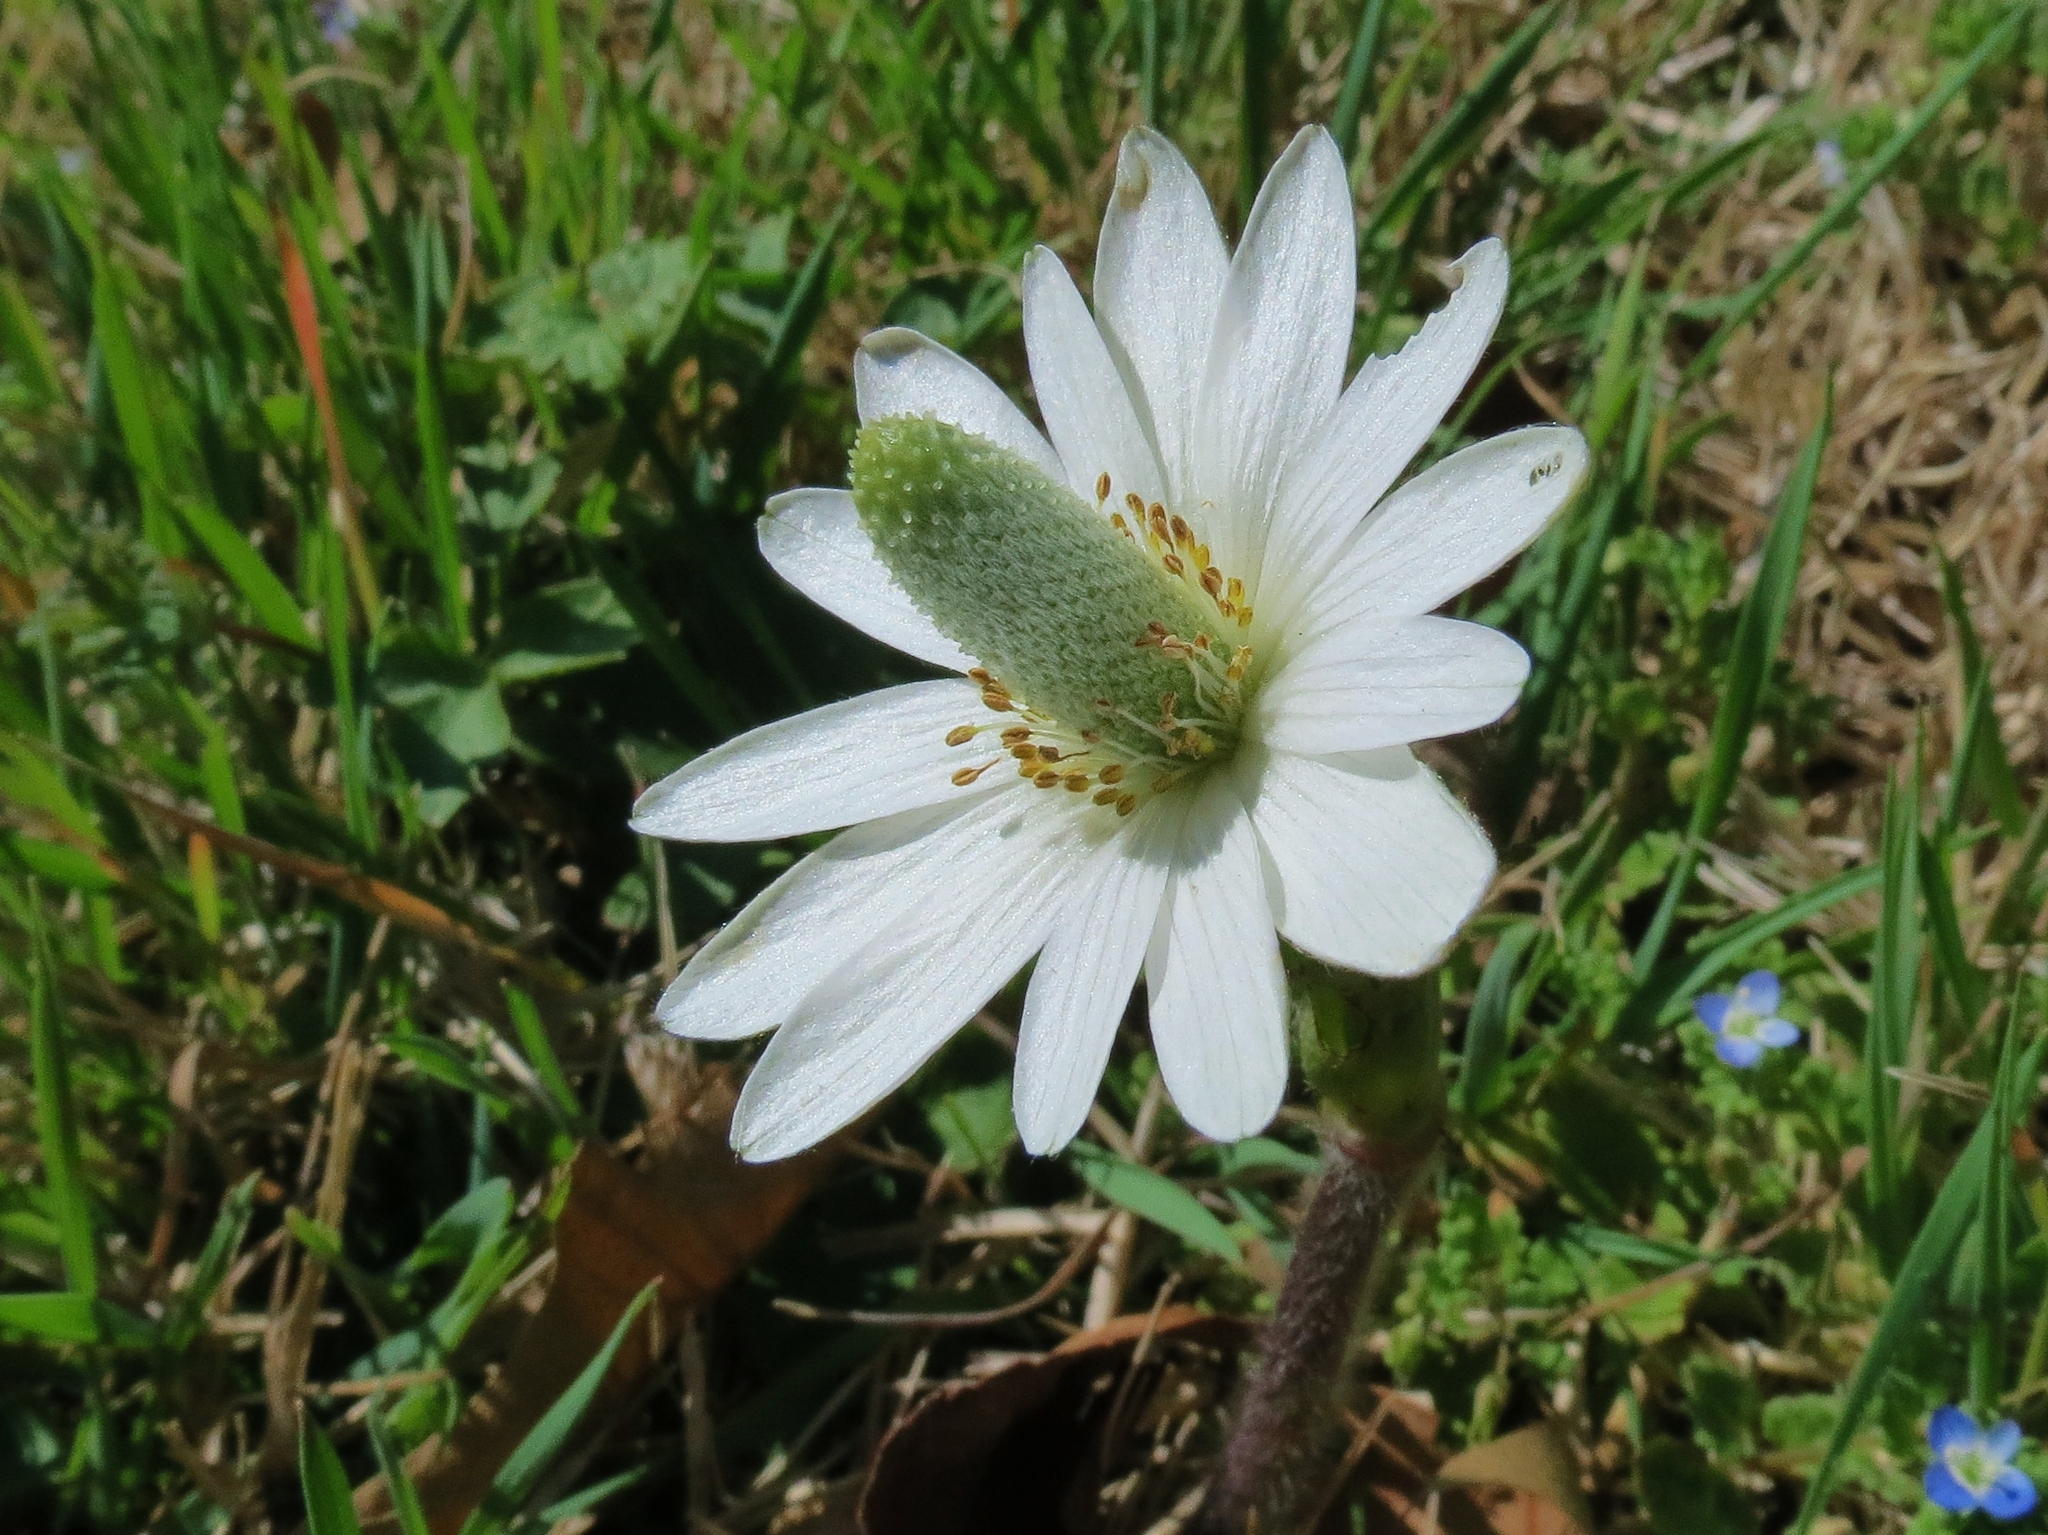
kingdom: Plantae
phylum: Tracheophyta
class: Magnoliopsida
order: Ranunculales
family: Ranunculaceae
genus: Anemone
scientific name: Anemone berlandieri
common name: Ten-petal anemone
